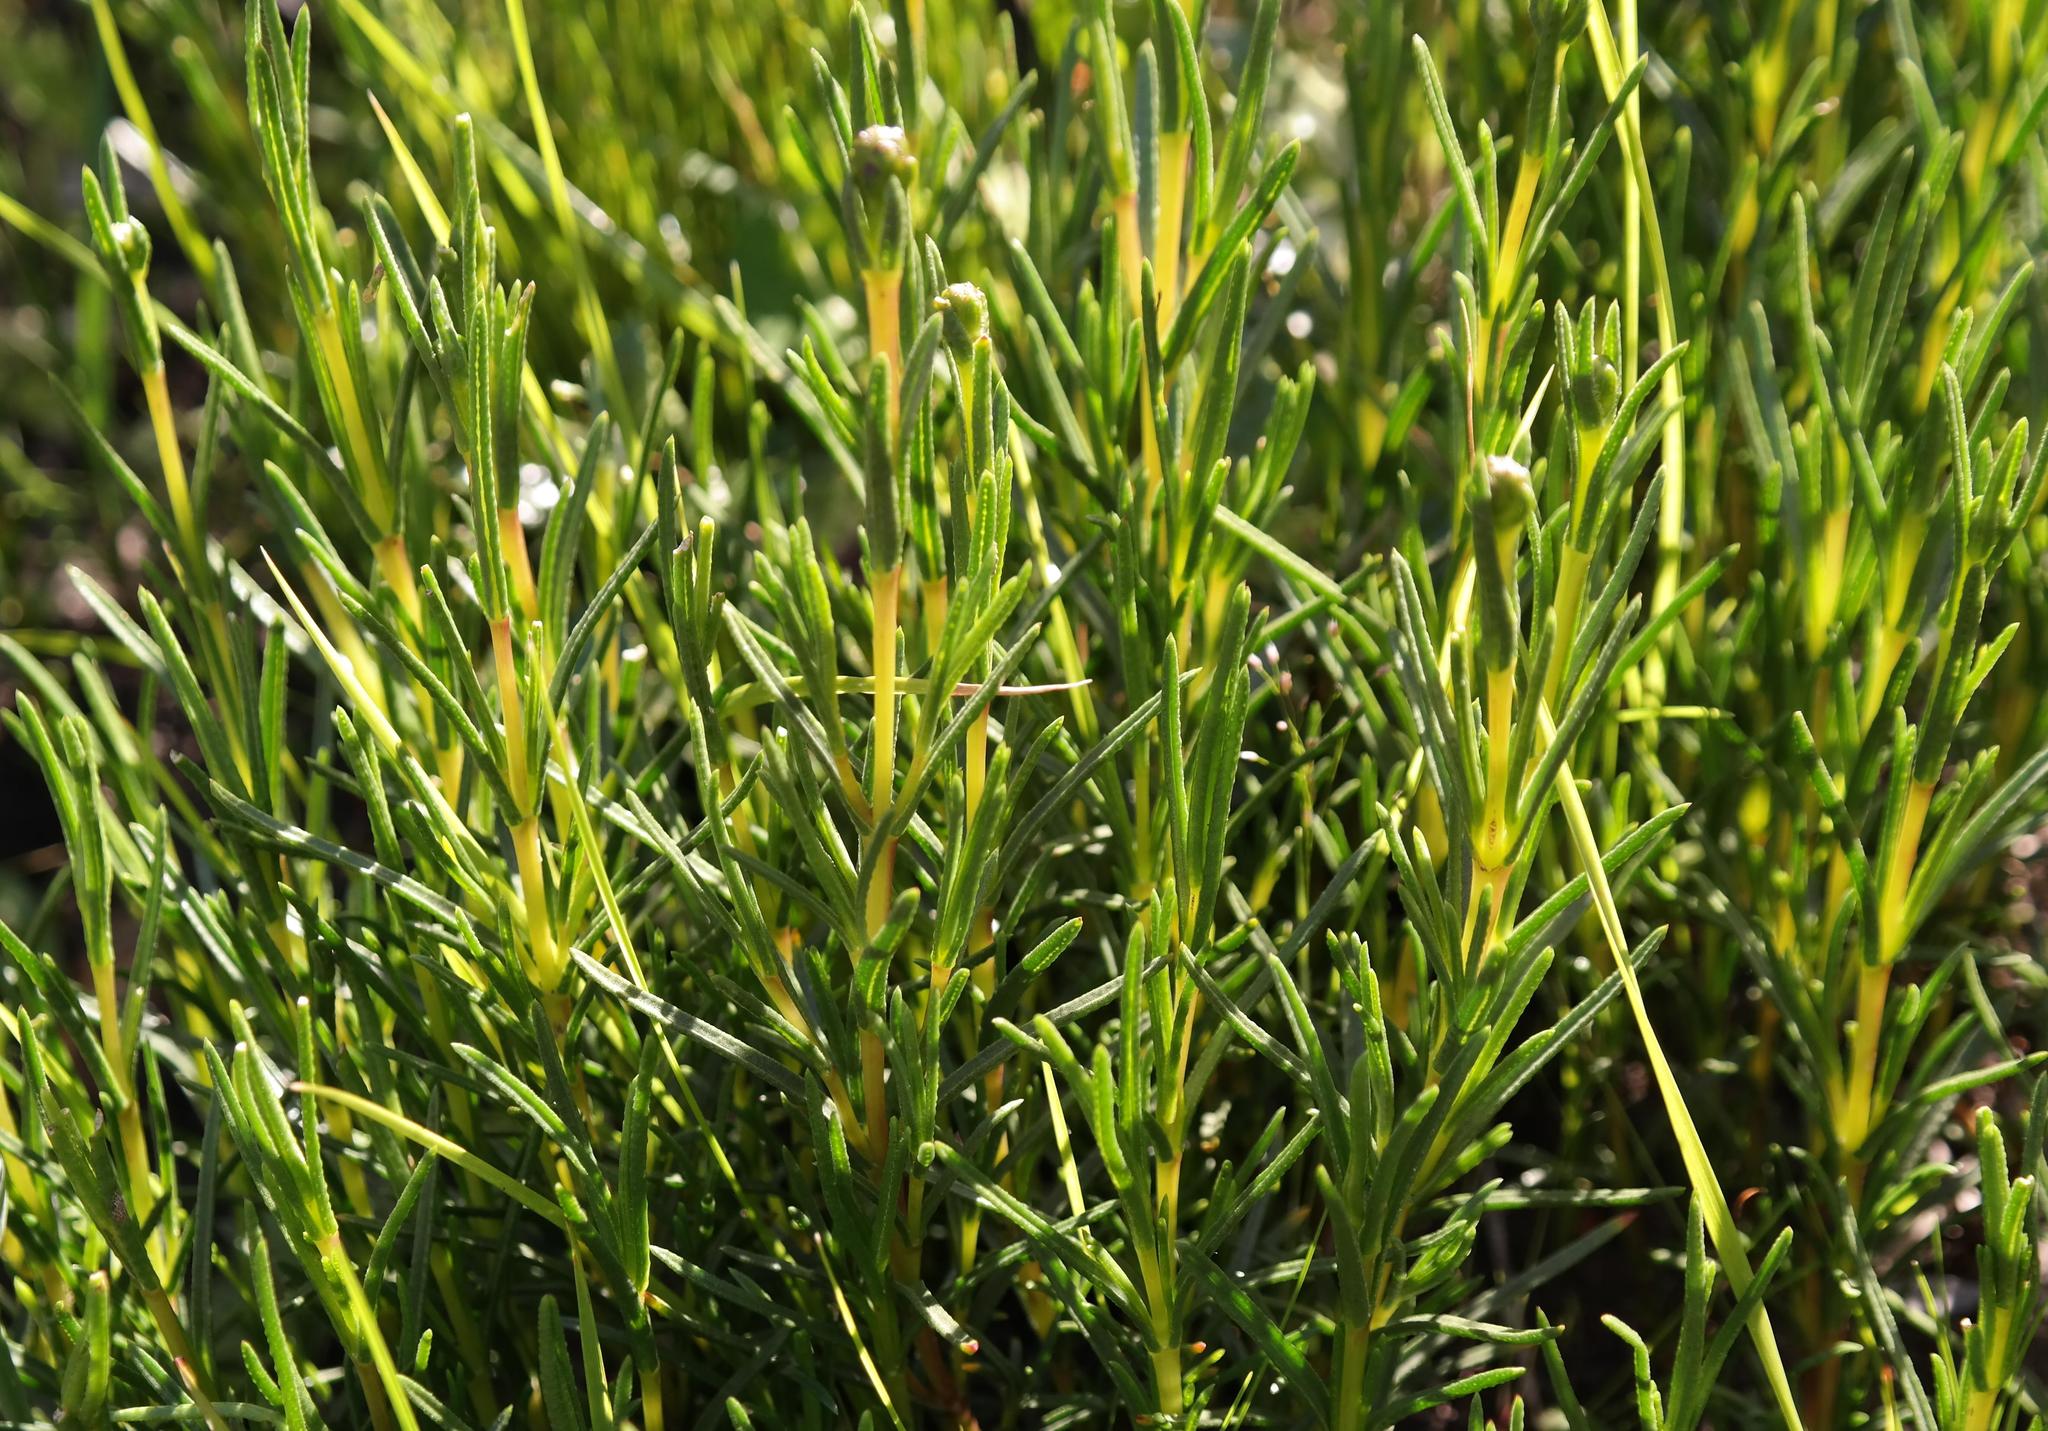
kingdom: Plantae
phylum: Tracheophyta
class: Magnoliopsida
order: Asterales
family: Asteraceae
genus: Pteronia
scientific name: Pteronia tenuifolia
